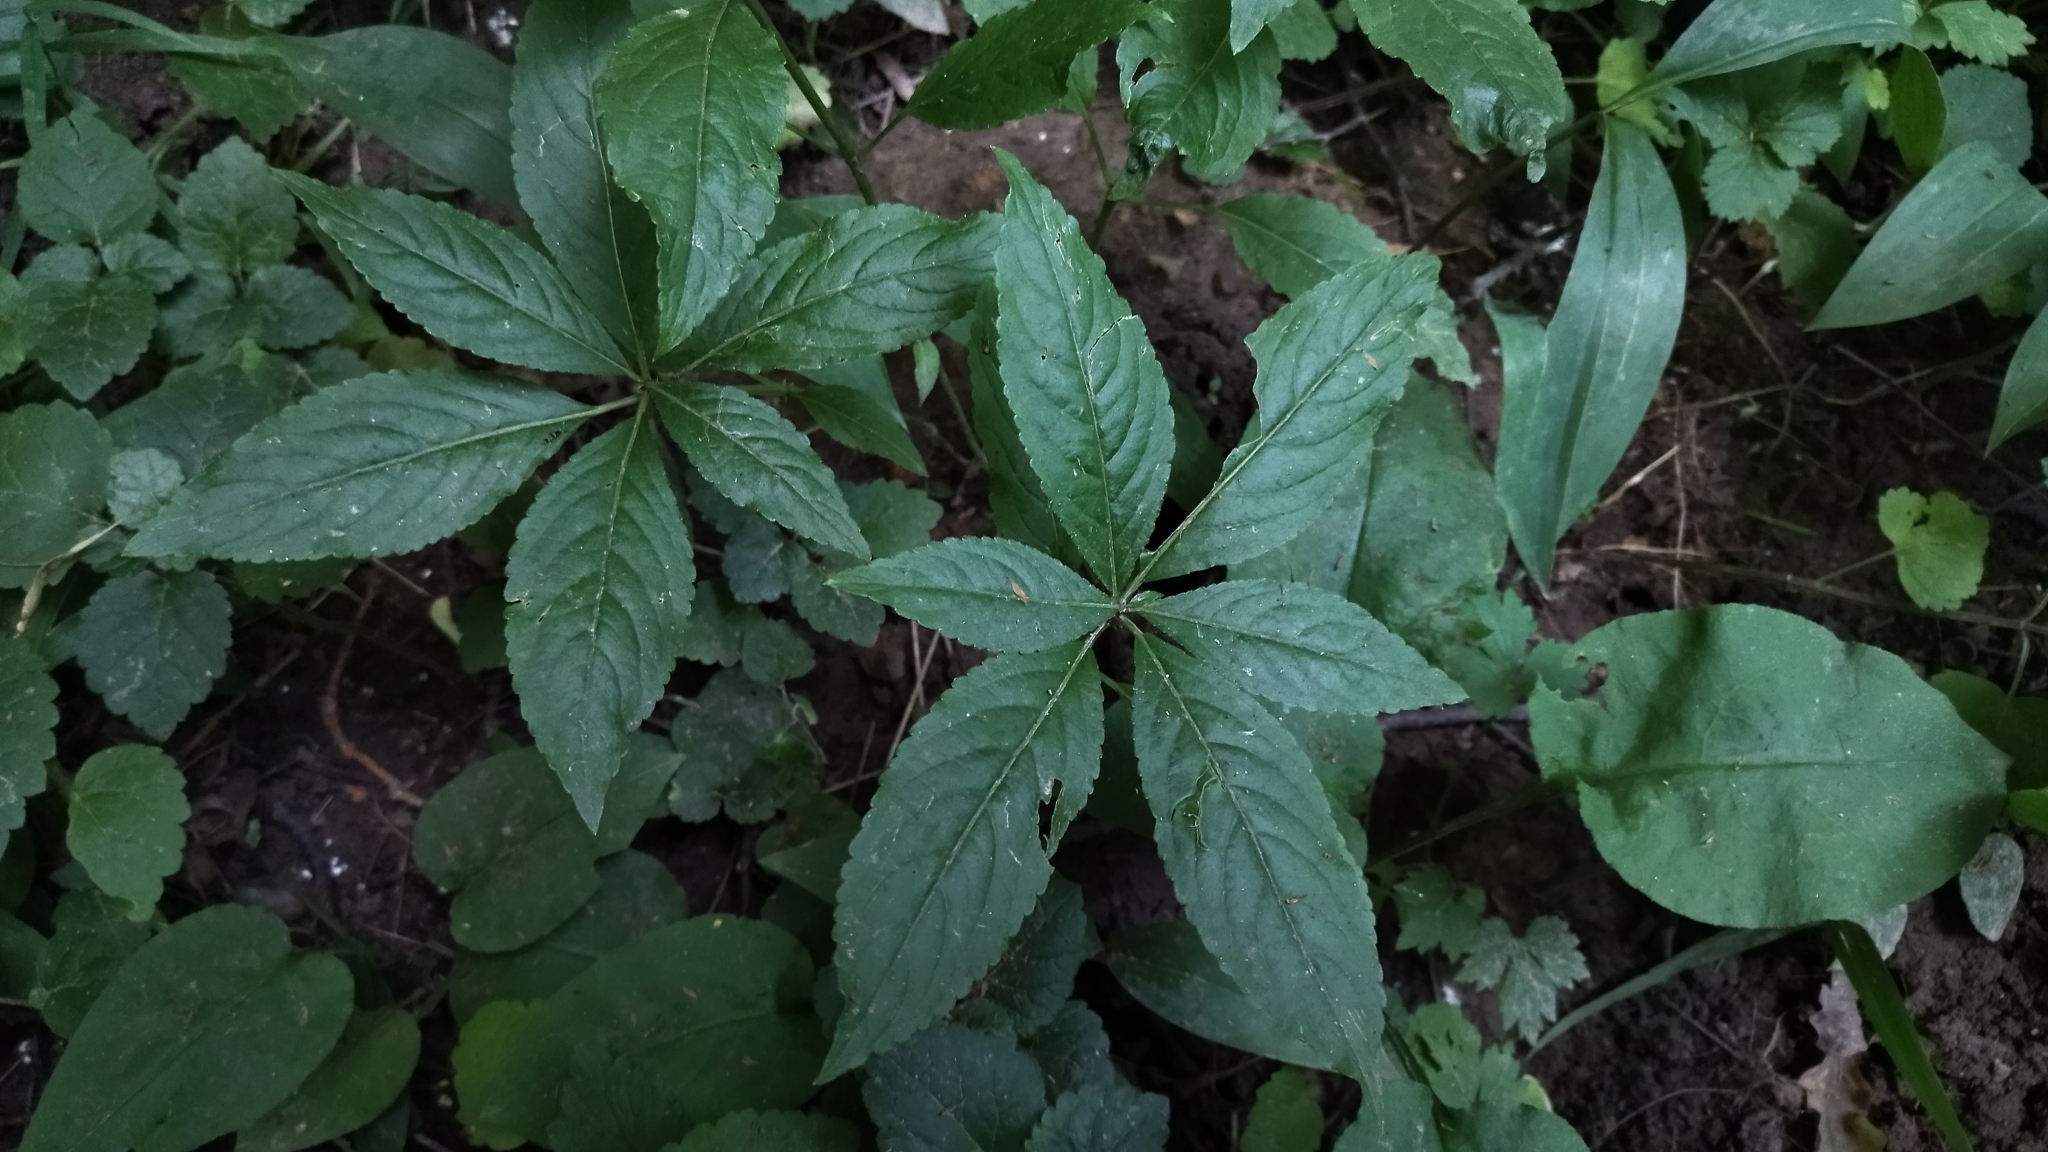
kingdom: Plantae
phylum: Tracheophyta
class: Magnoliopsida
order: Malpighiales
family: Euphorbiaceae
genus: Mercurialis
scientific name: Mercurialis perennis
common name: Dog mercury
